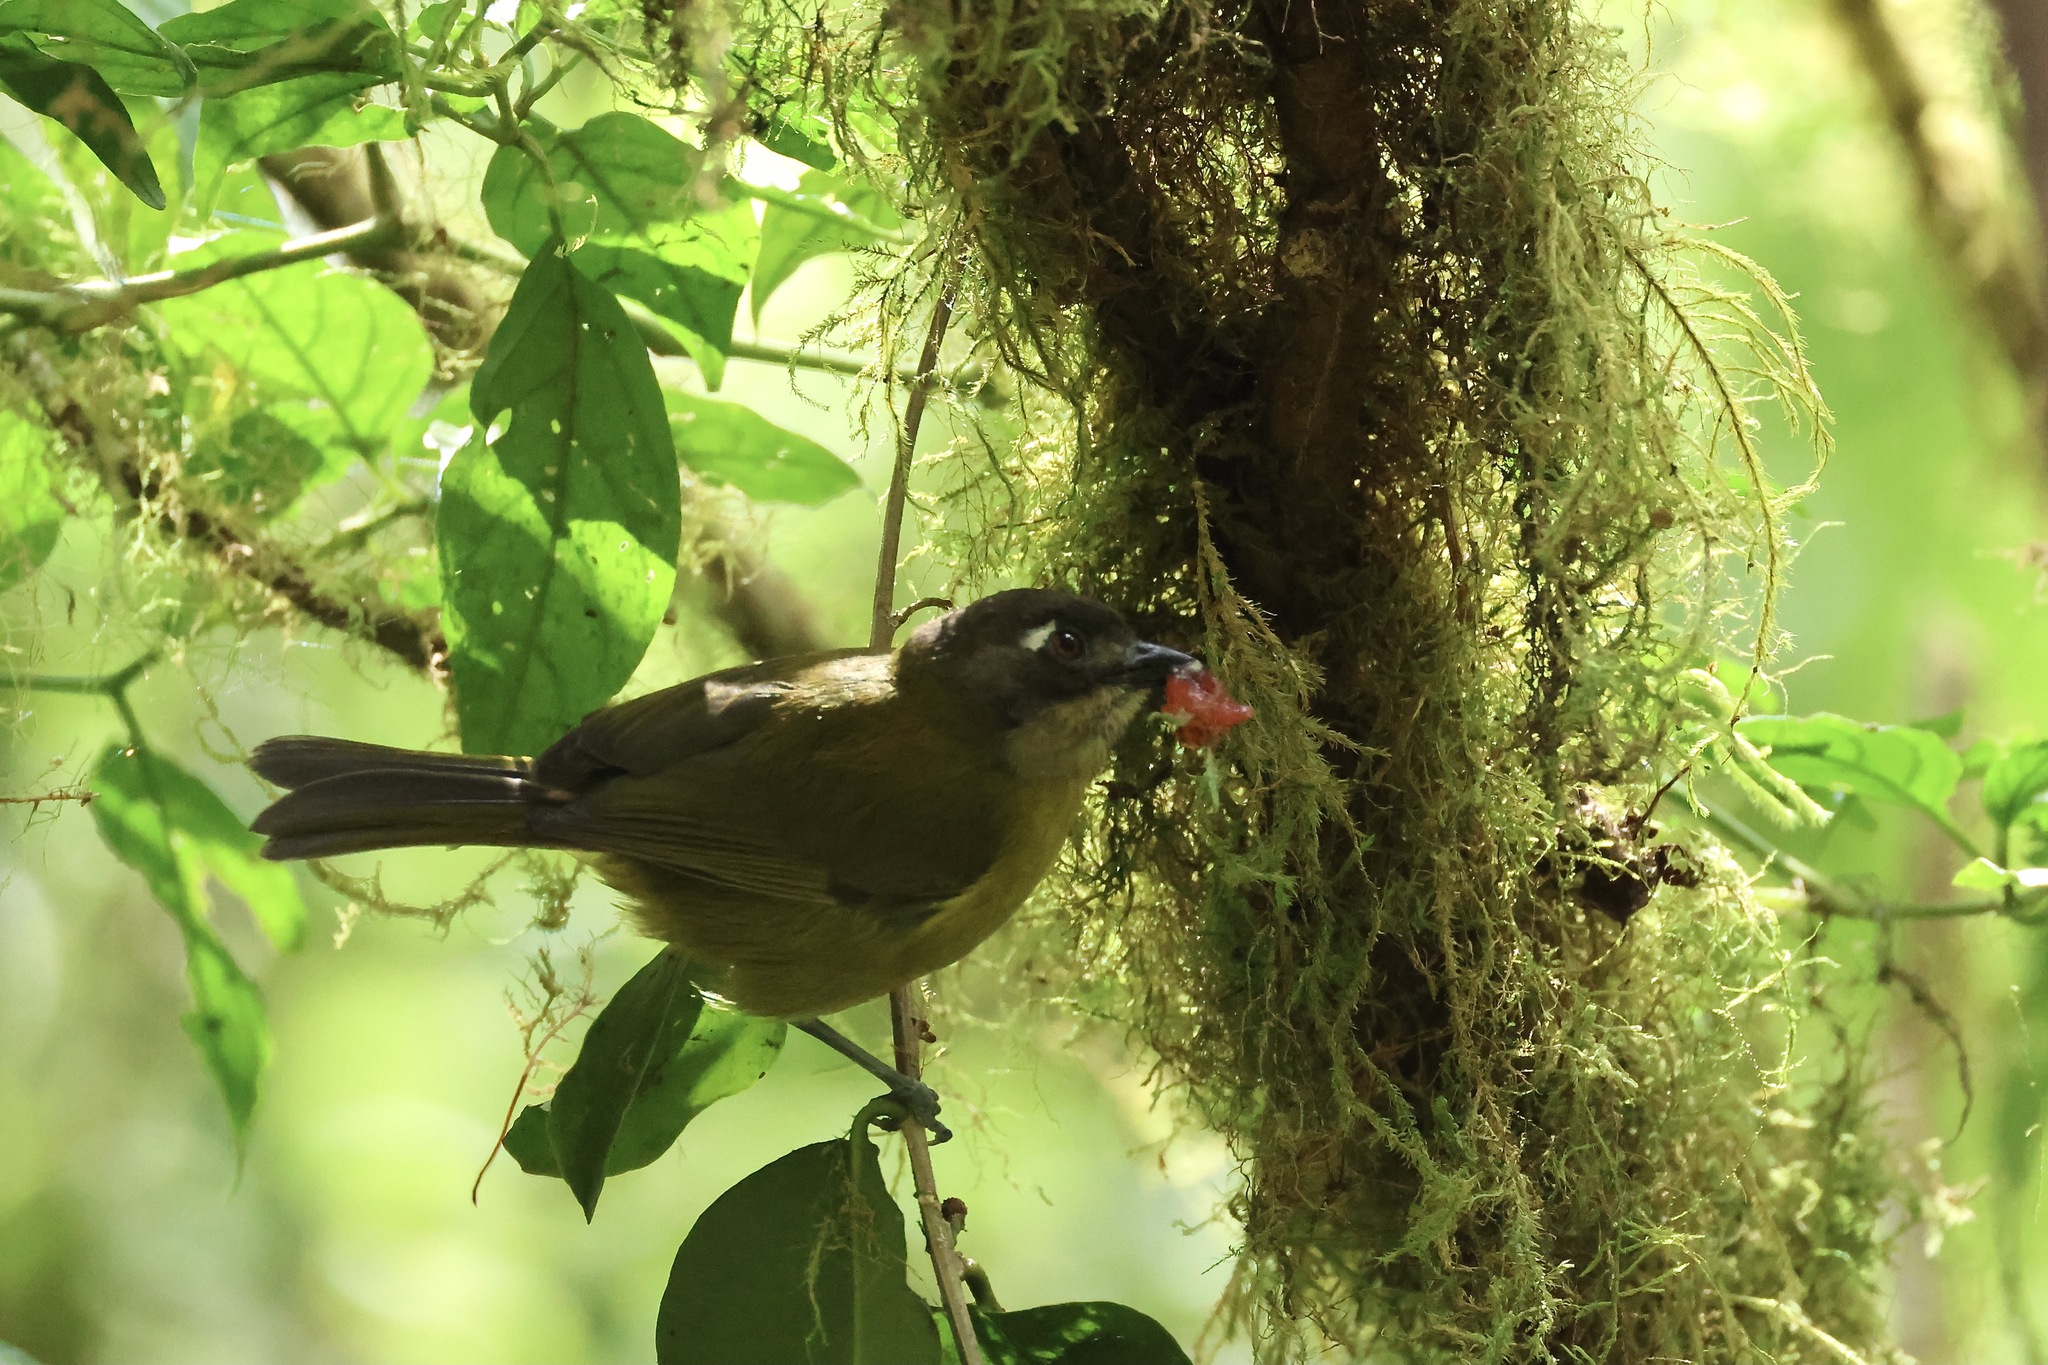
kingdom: Animalia
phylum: Chordata
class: Aves
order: Passeriformes
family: Passerellidae
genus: Chlorospingus
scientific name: Chlorospingus flavopectus
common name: Common chlorospingus
